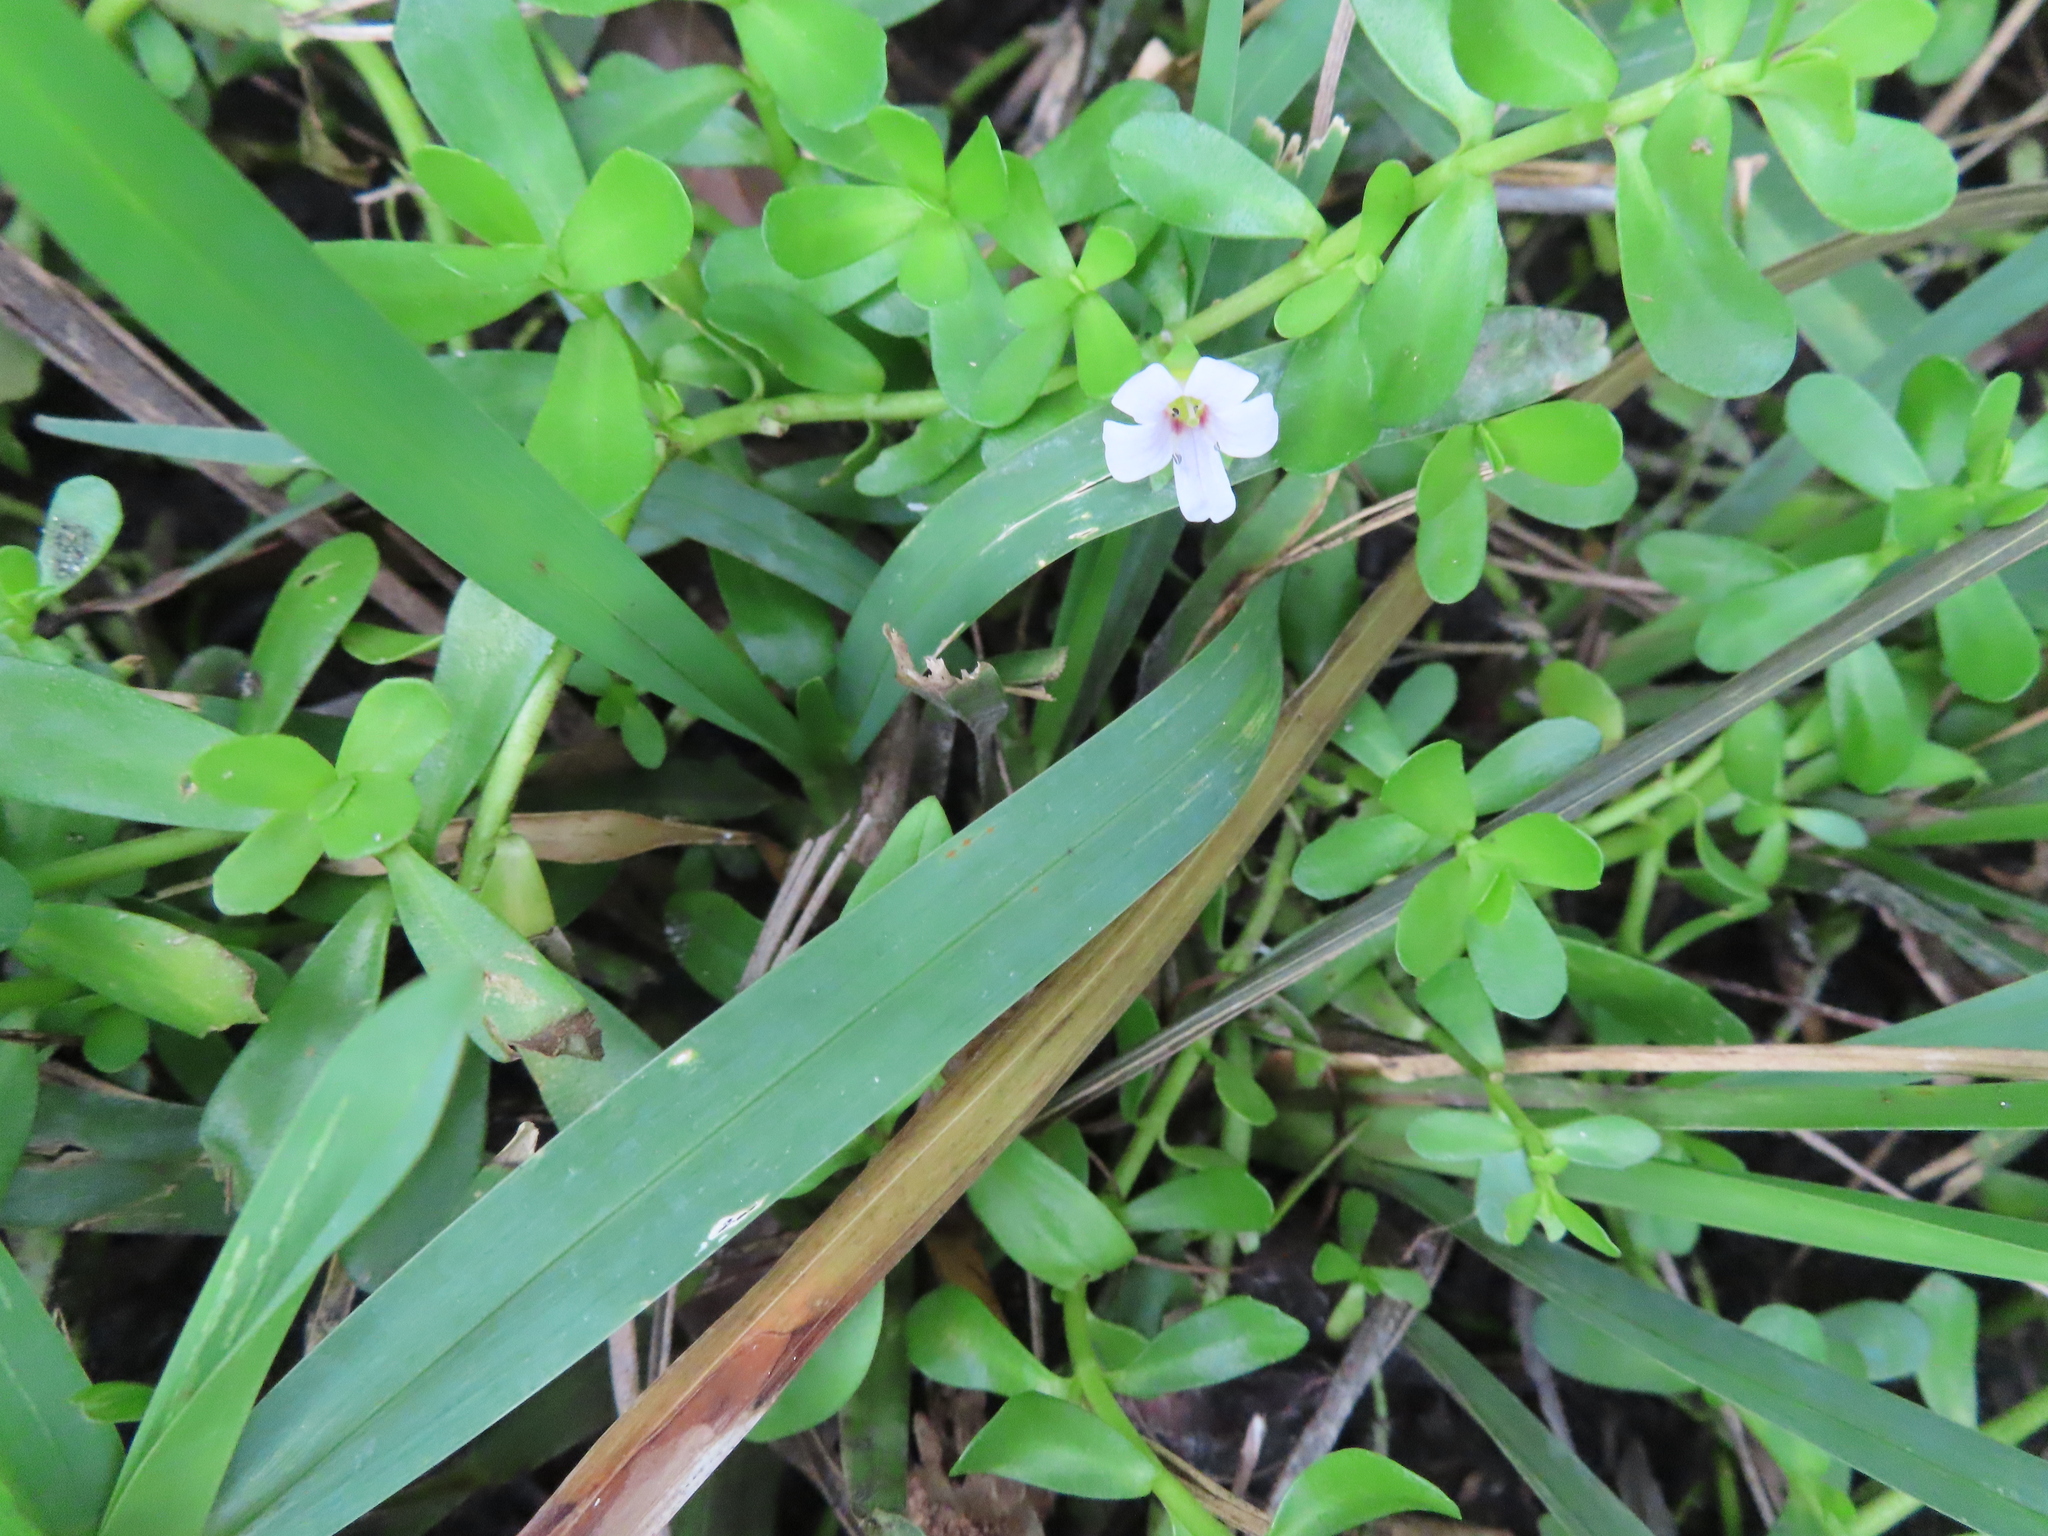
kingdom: Plantae
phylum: Tracheophyta
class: Magnoliopsida
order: Lamiales
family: Plantaginaceae
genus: Bacopa
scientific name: Bacopa monnieri
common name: Indian-pennywort
